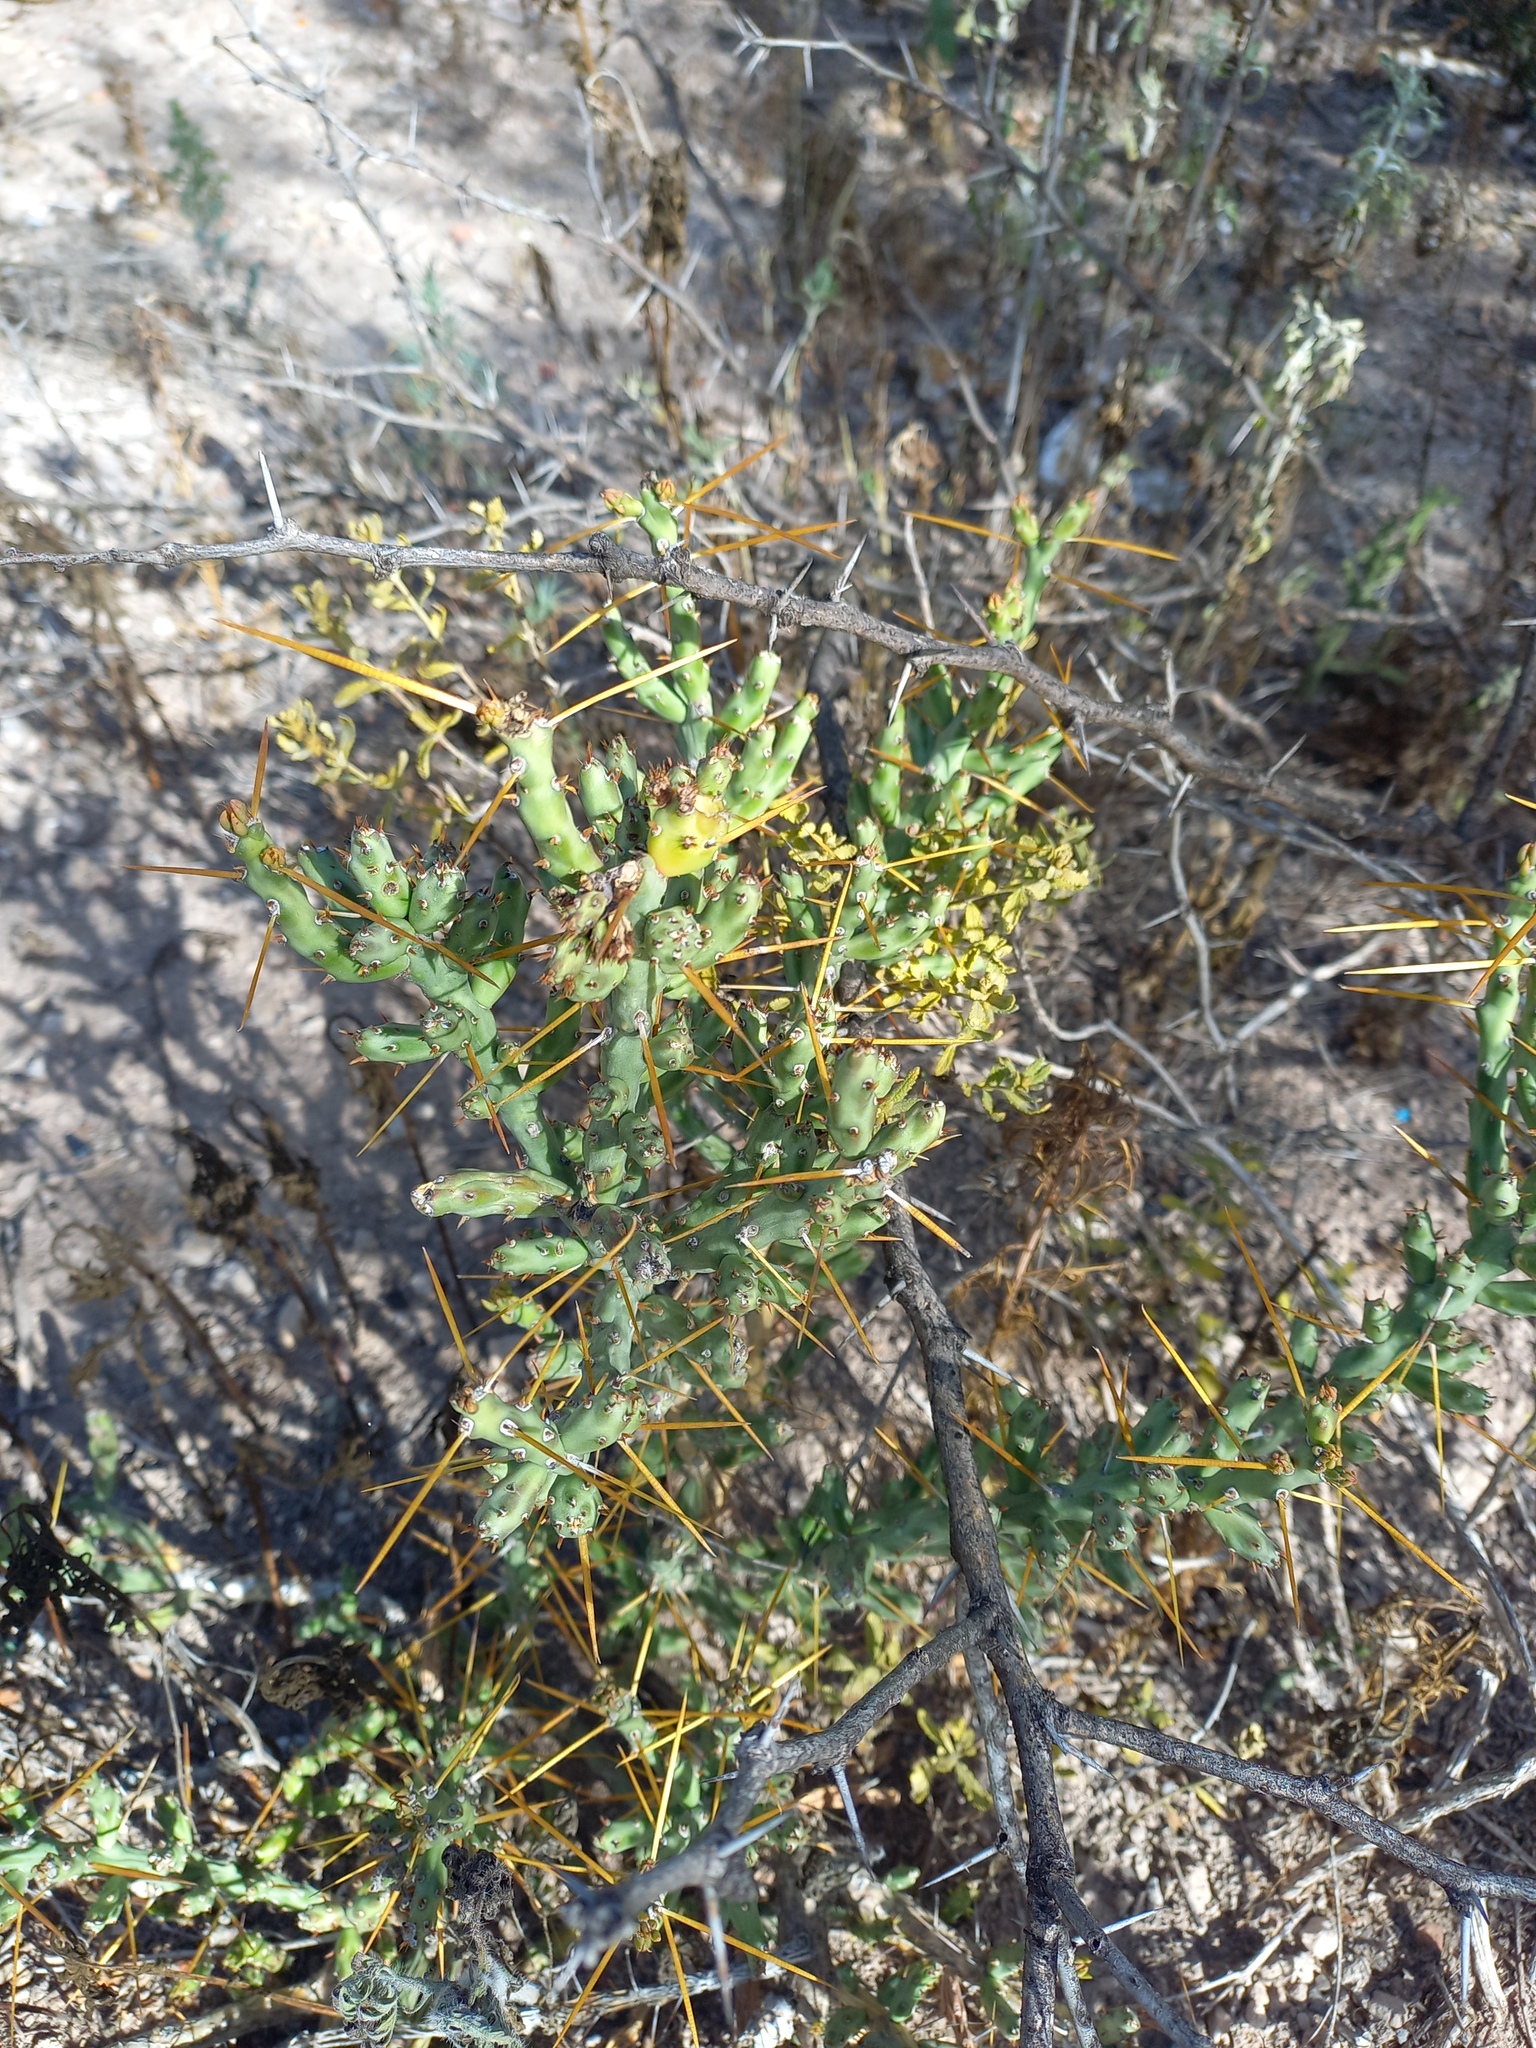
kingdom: Plantae
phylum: Tracheophyta
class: Magnoliopsida
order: Caryophyllales
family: Cactaceae
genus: Cylindropuntia
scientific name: Cylindropuntia leptocaulis
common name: Christmas cactus
